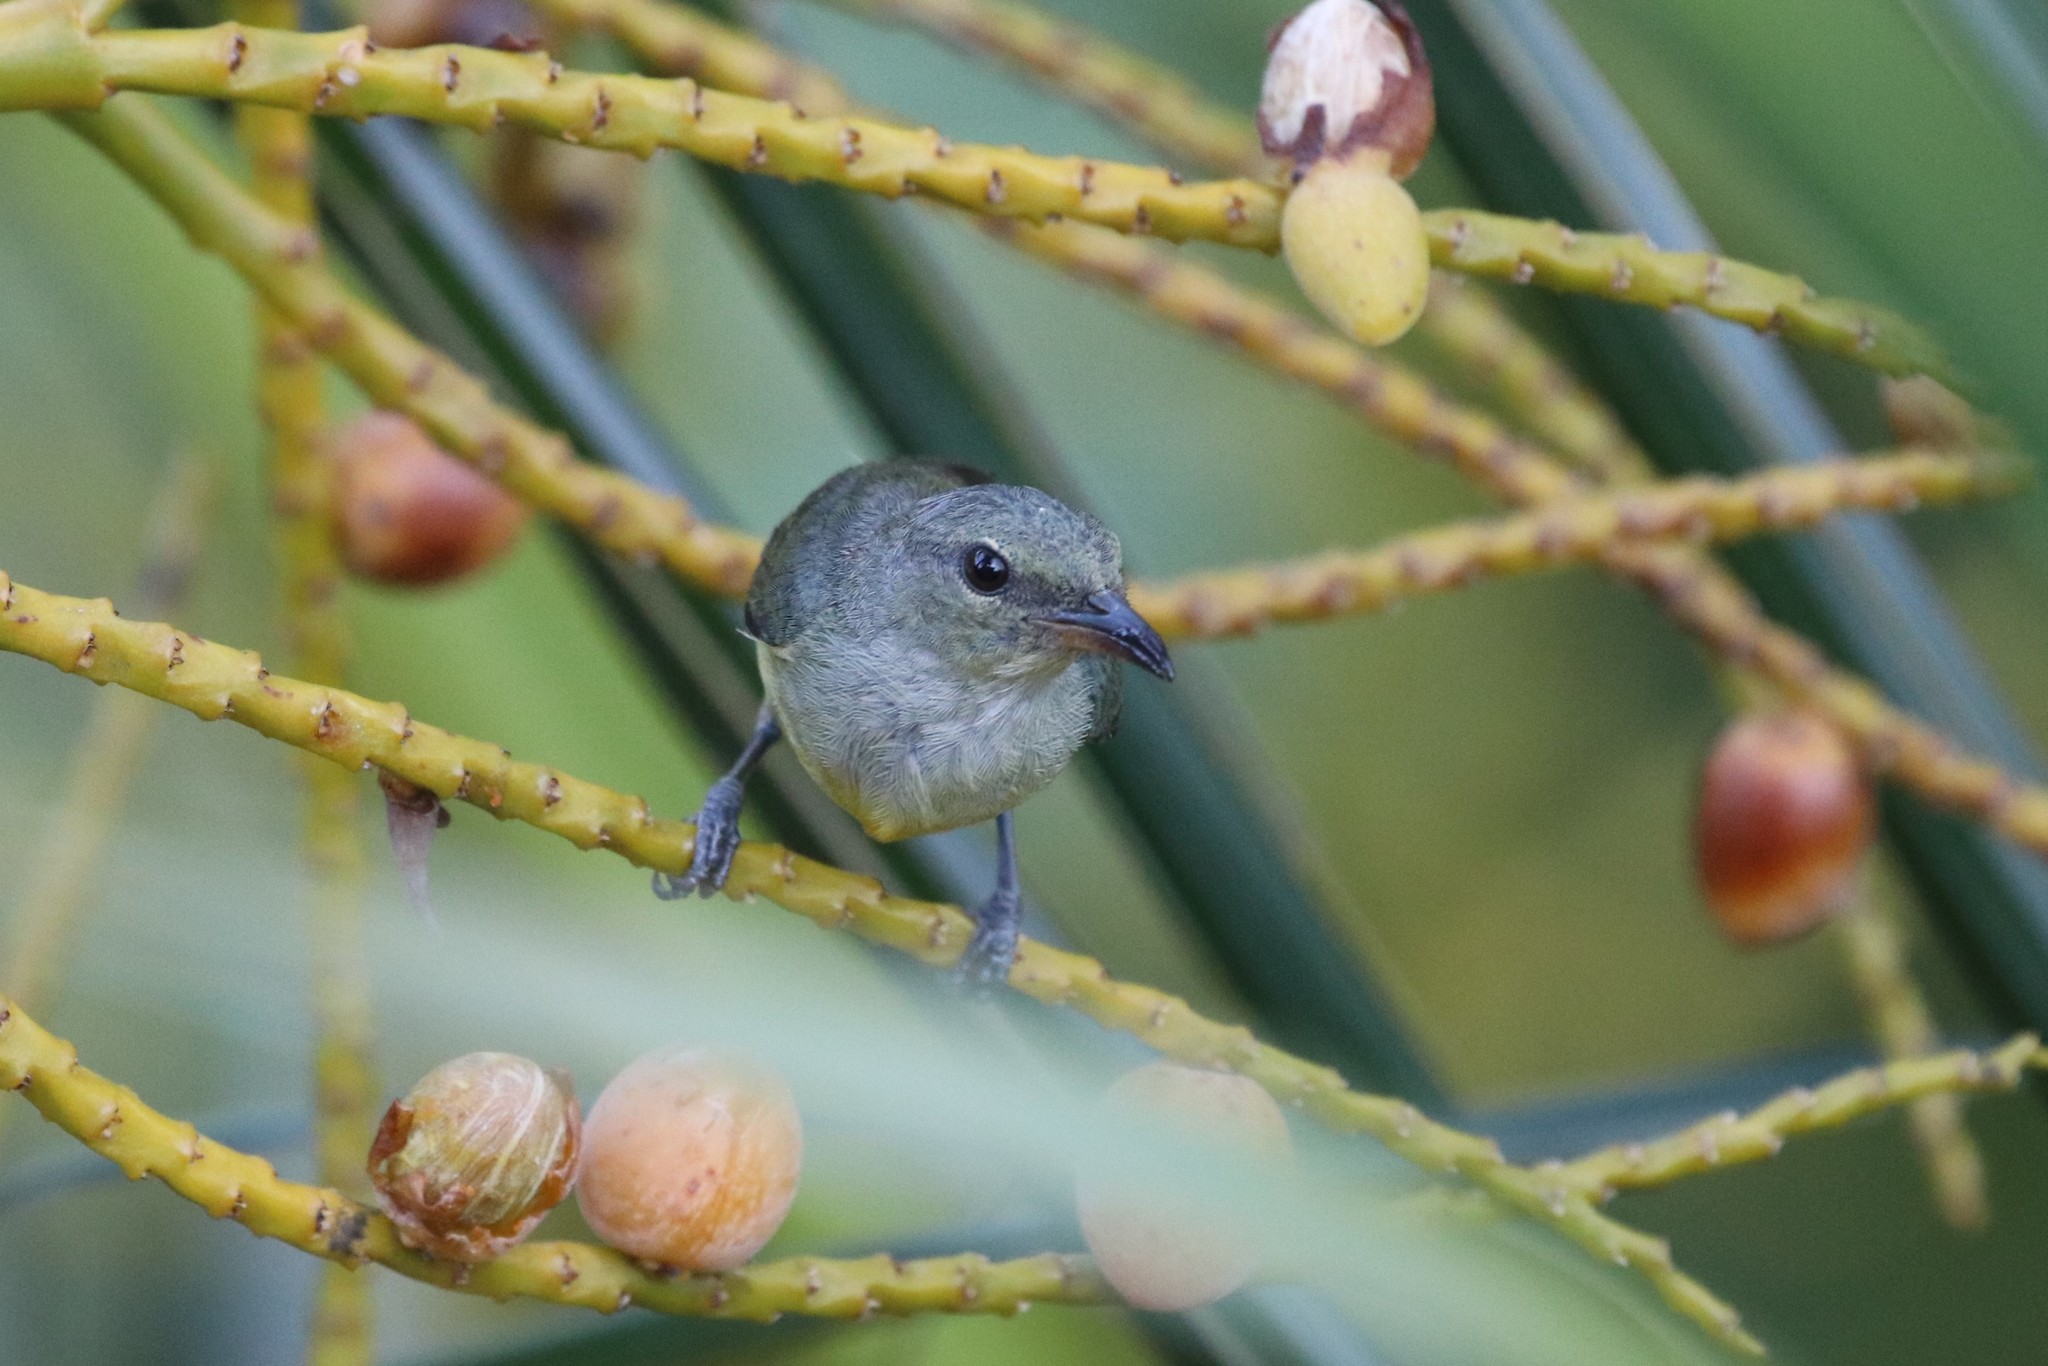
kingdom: Animalia
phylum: Chordata
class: Aves
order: Passeriformes
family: Dicaeidae
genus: Dicaeum
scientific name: Dicaeum trigonostigma
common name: Orange-bellied flowerpecker
